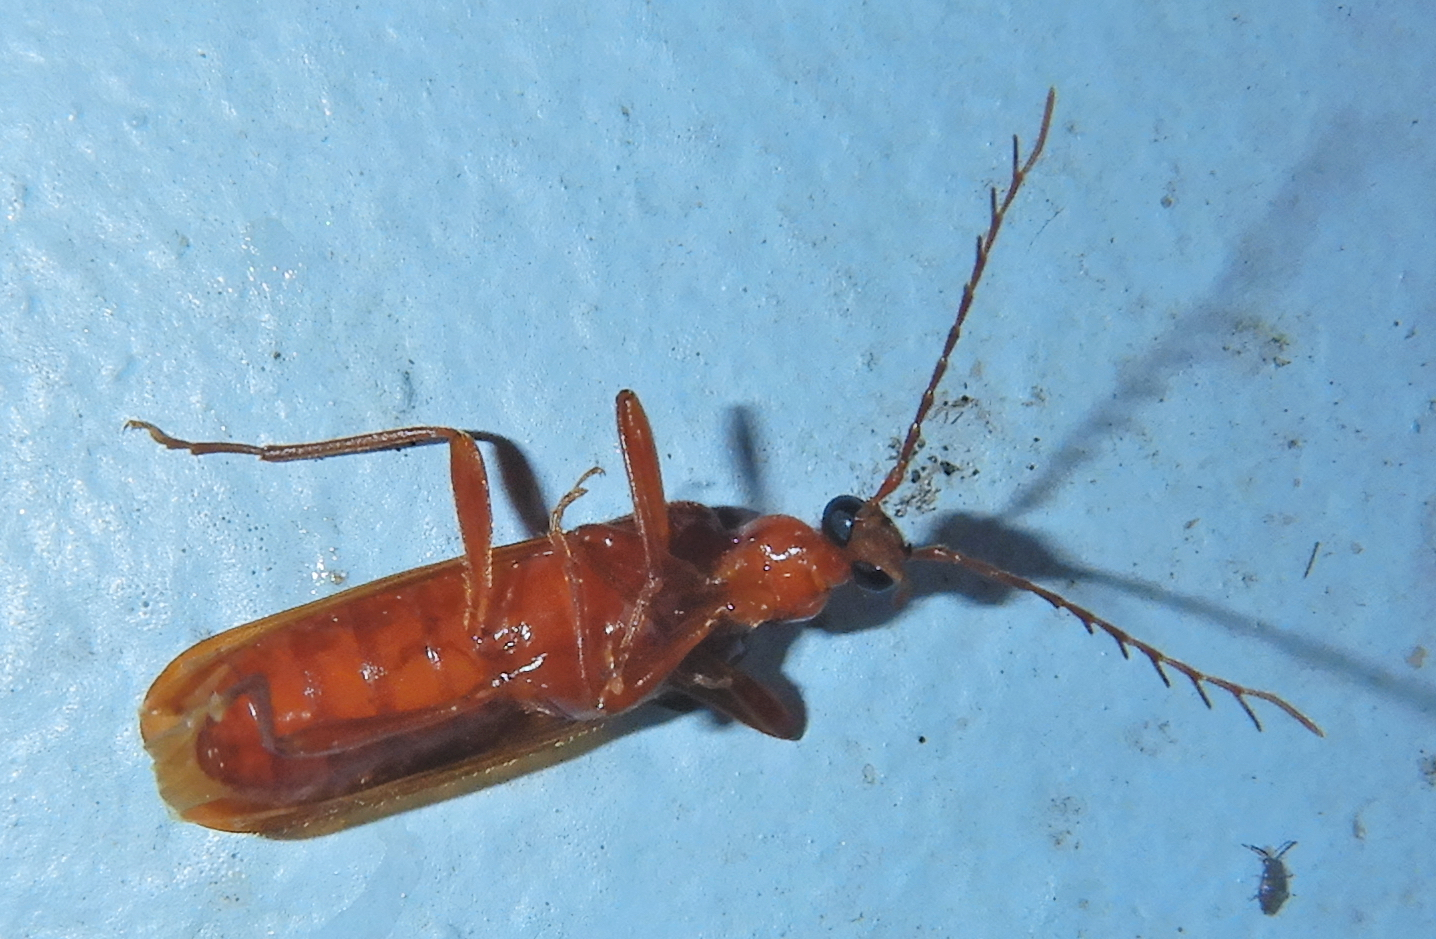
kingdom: Animalia
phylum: Arthropoda
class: Insecta
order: Coleoptera
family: Pyrochroidae
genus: Dendroides
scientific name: Dendroides concolor
